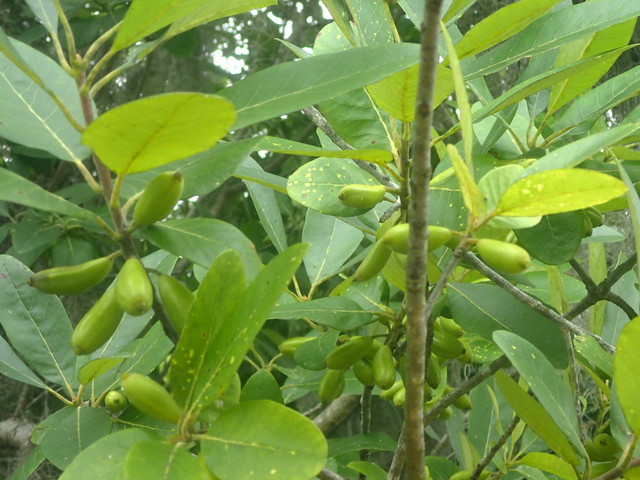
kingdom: Plantae
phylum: Tracheophyta
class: Magnoliopsida
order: Cornales
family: Nyssaceae
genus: Nyssa
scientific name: Nyssa ogeche
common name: Ogeechee tupelo
